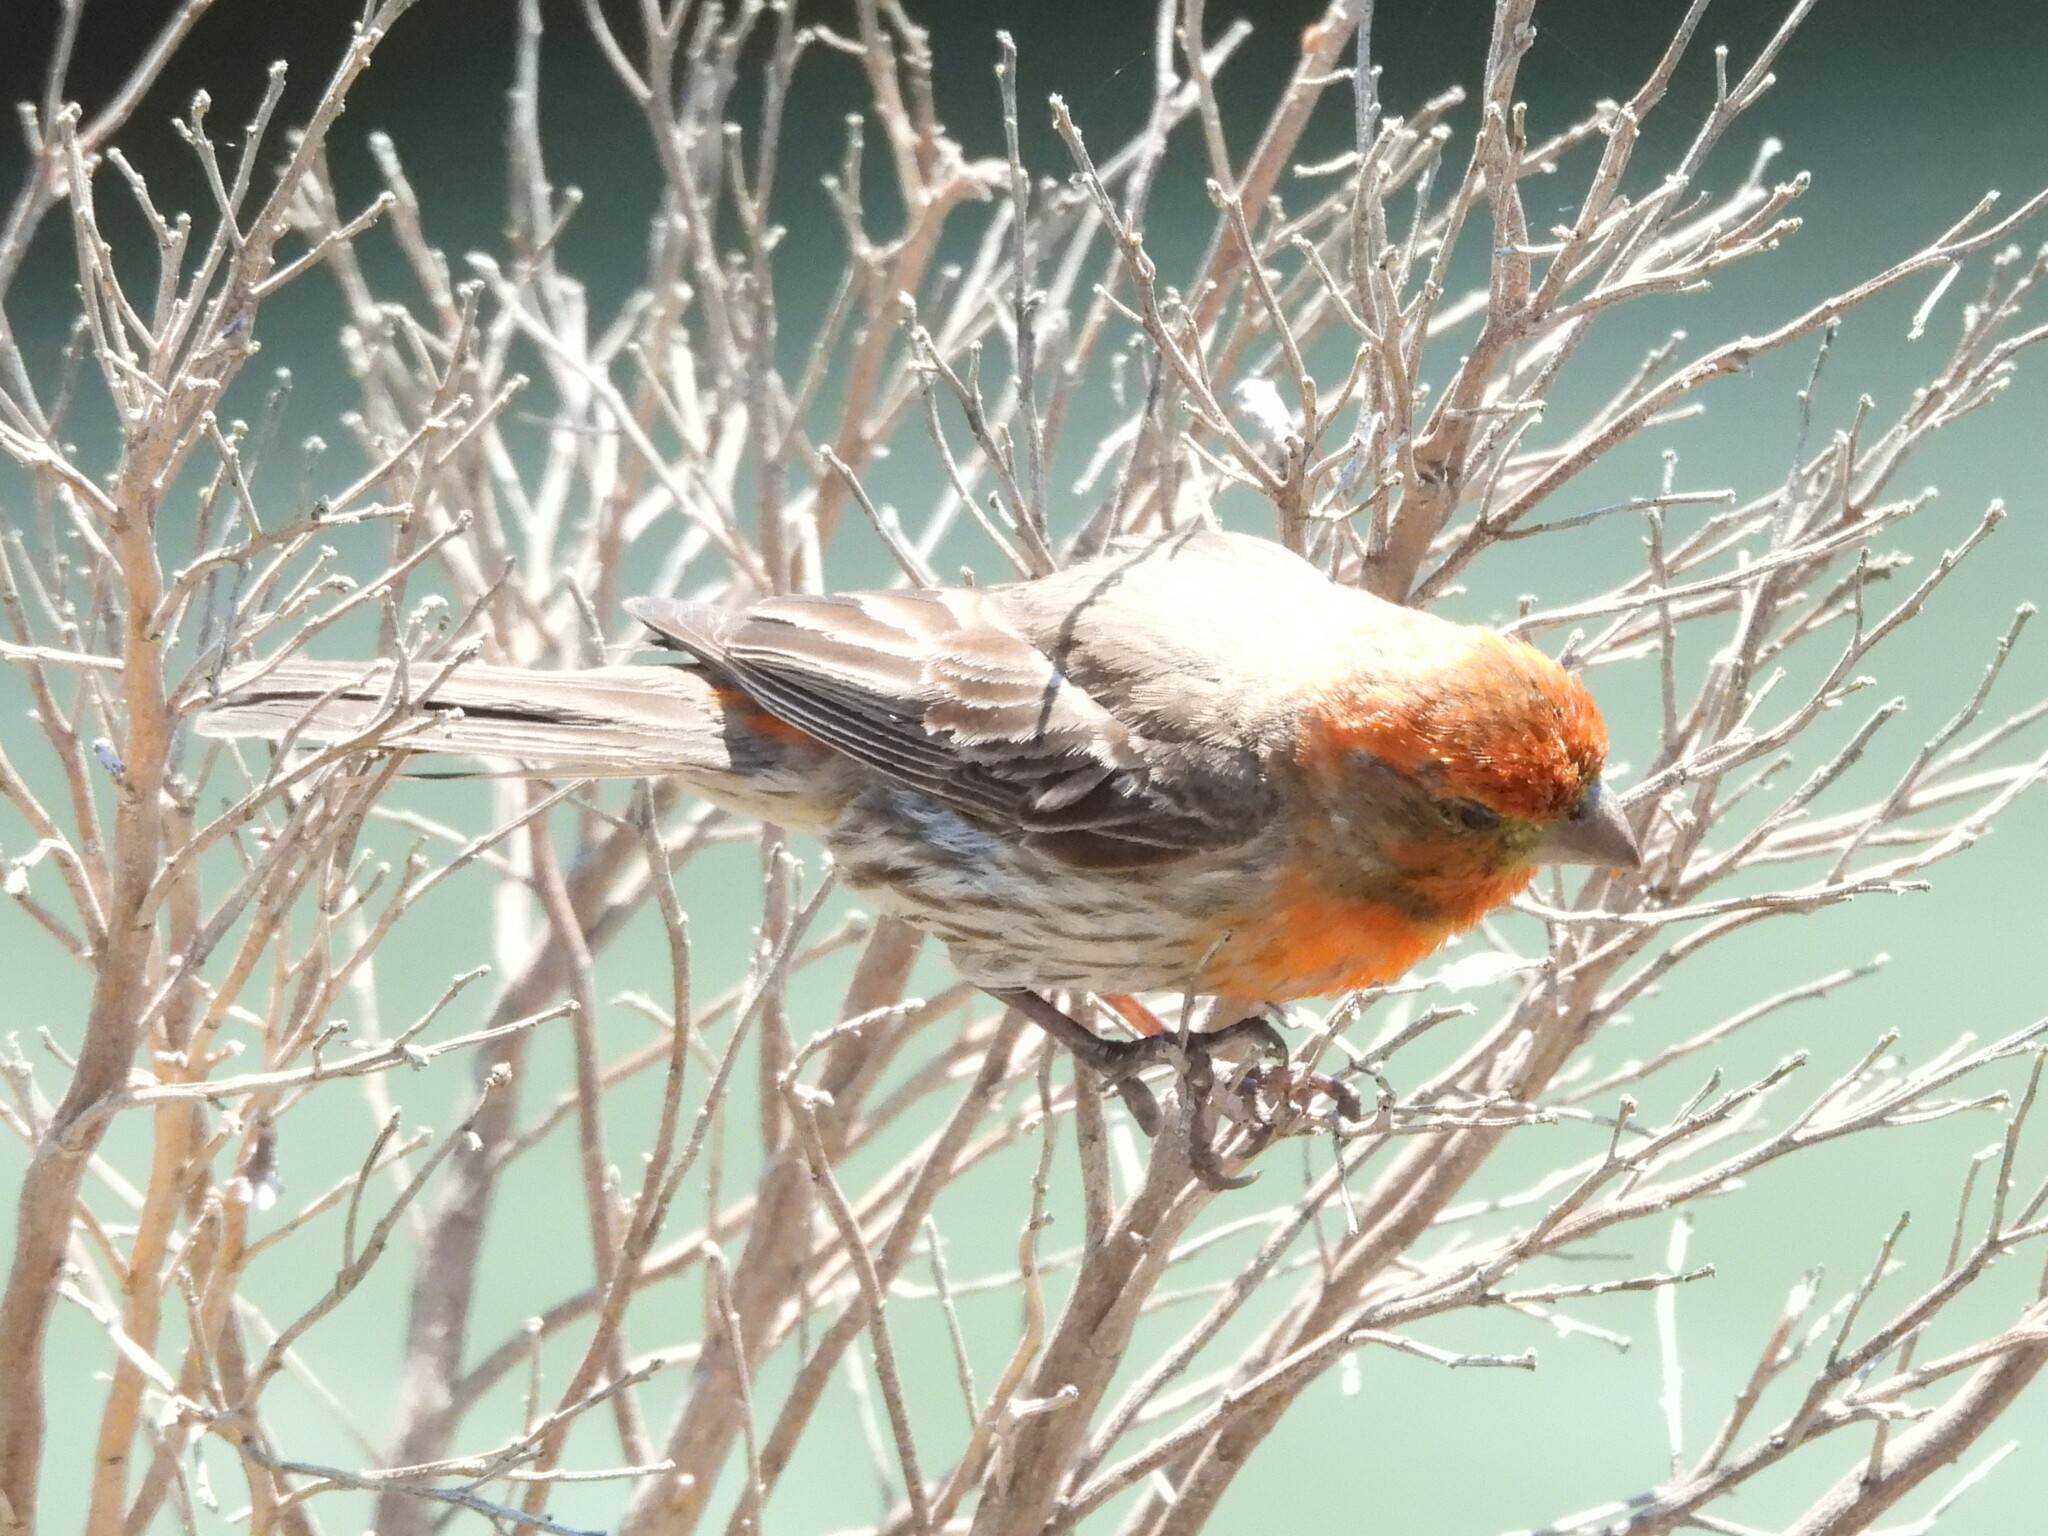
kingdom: Animalia
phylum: Chordata
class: Aves
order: Passeriformes
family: Fringillidae
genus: Haemorhous
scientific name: Haemorhous mexicanus
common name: House finch
